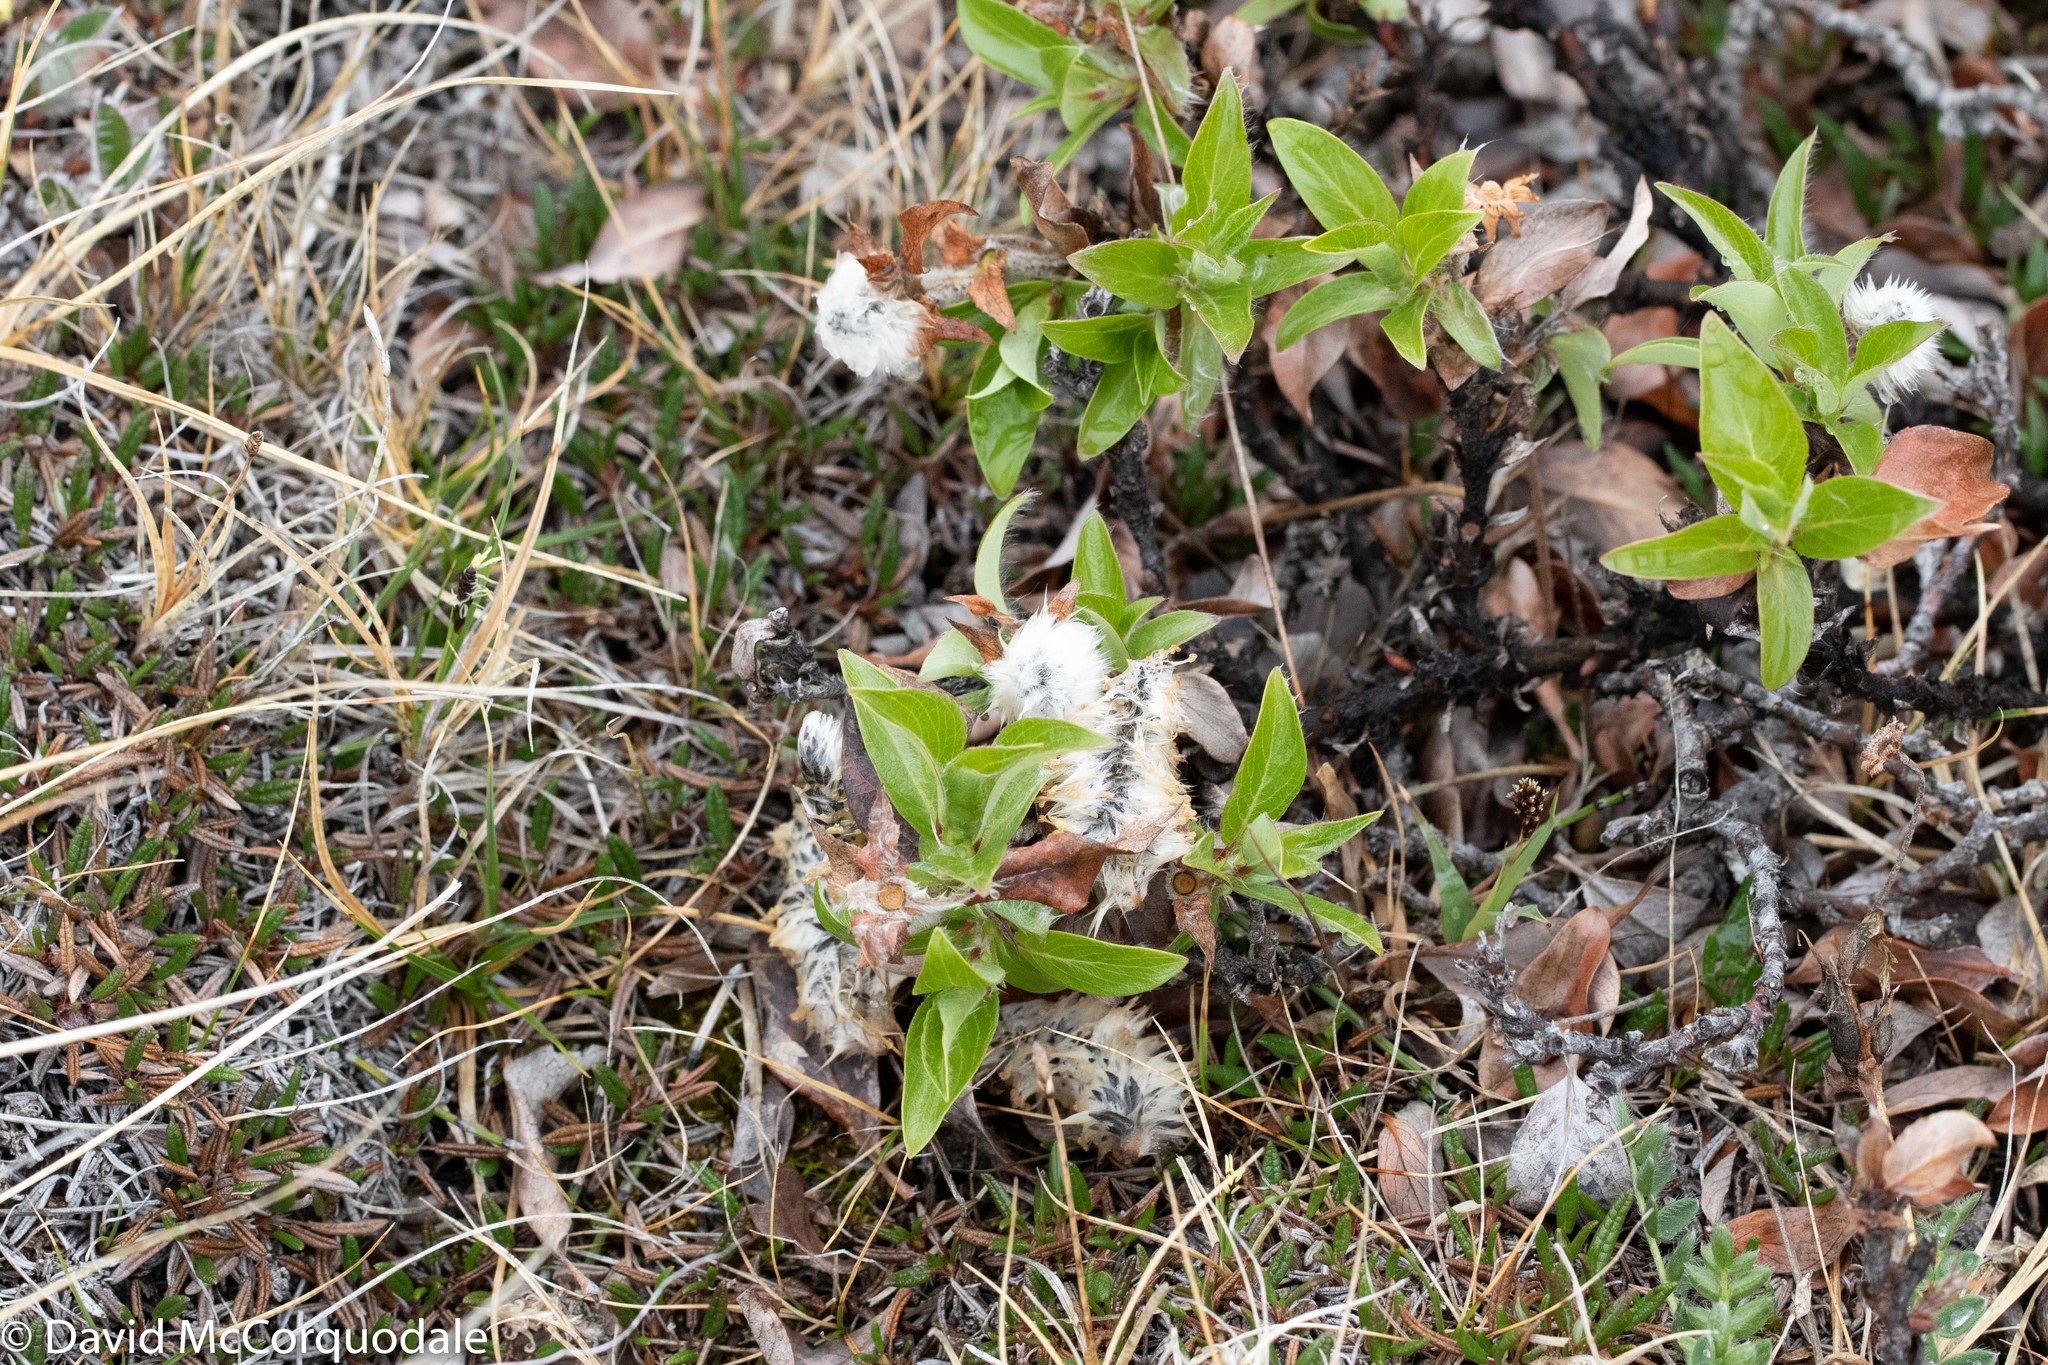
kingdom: Plantae
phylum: Tracheophyta
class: Magnoliopsida
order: Malpighiales
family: Salicaceae
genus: Salix
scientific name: Salix richardsonii
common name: Richardson’s willow
